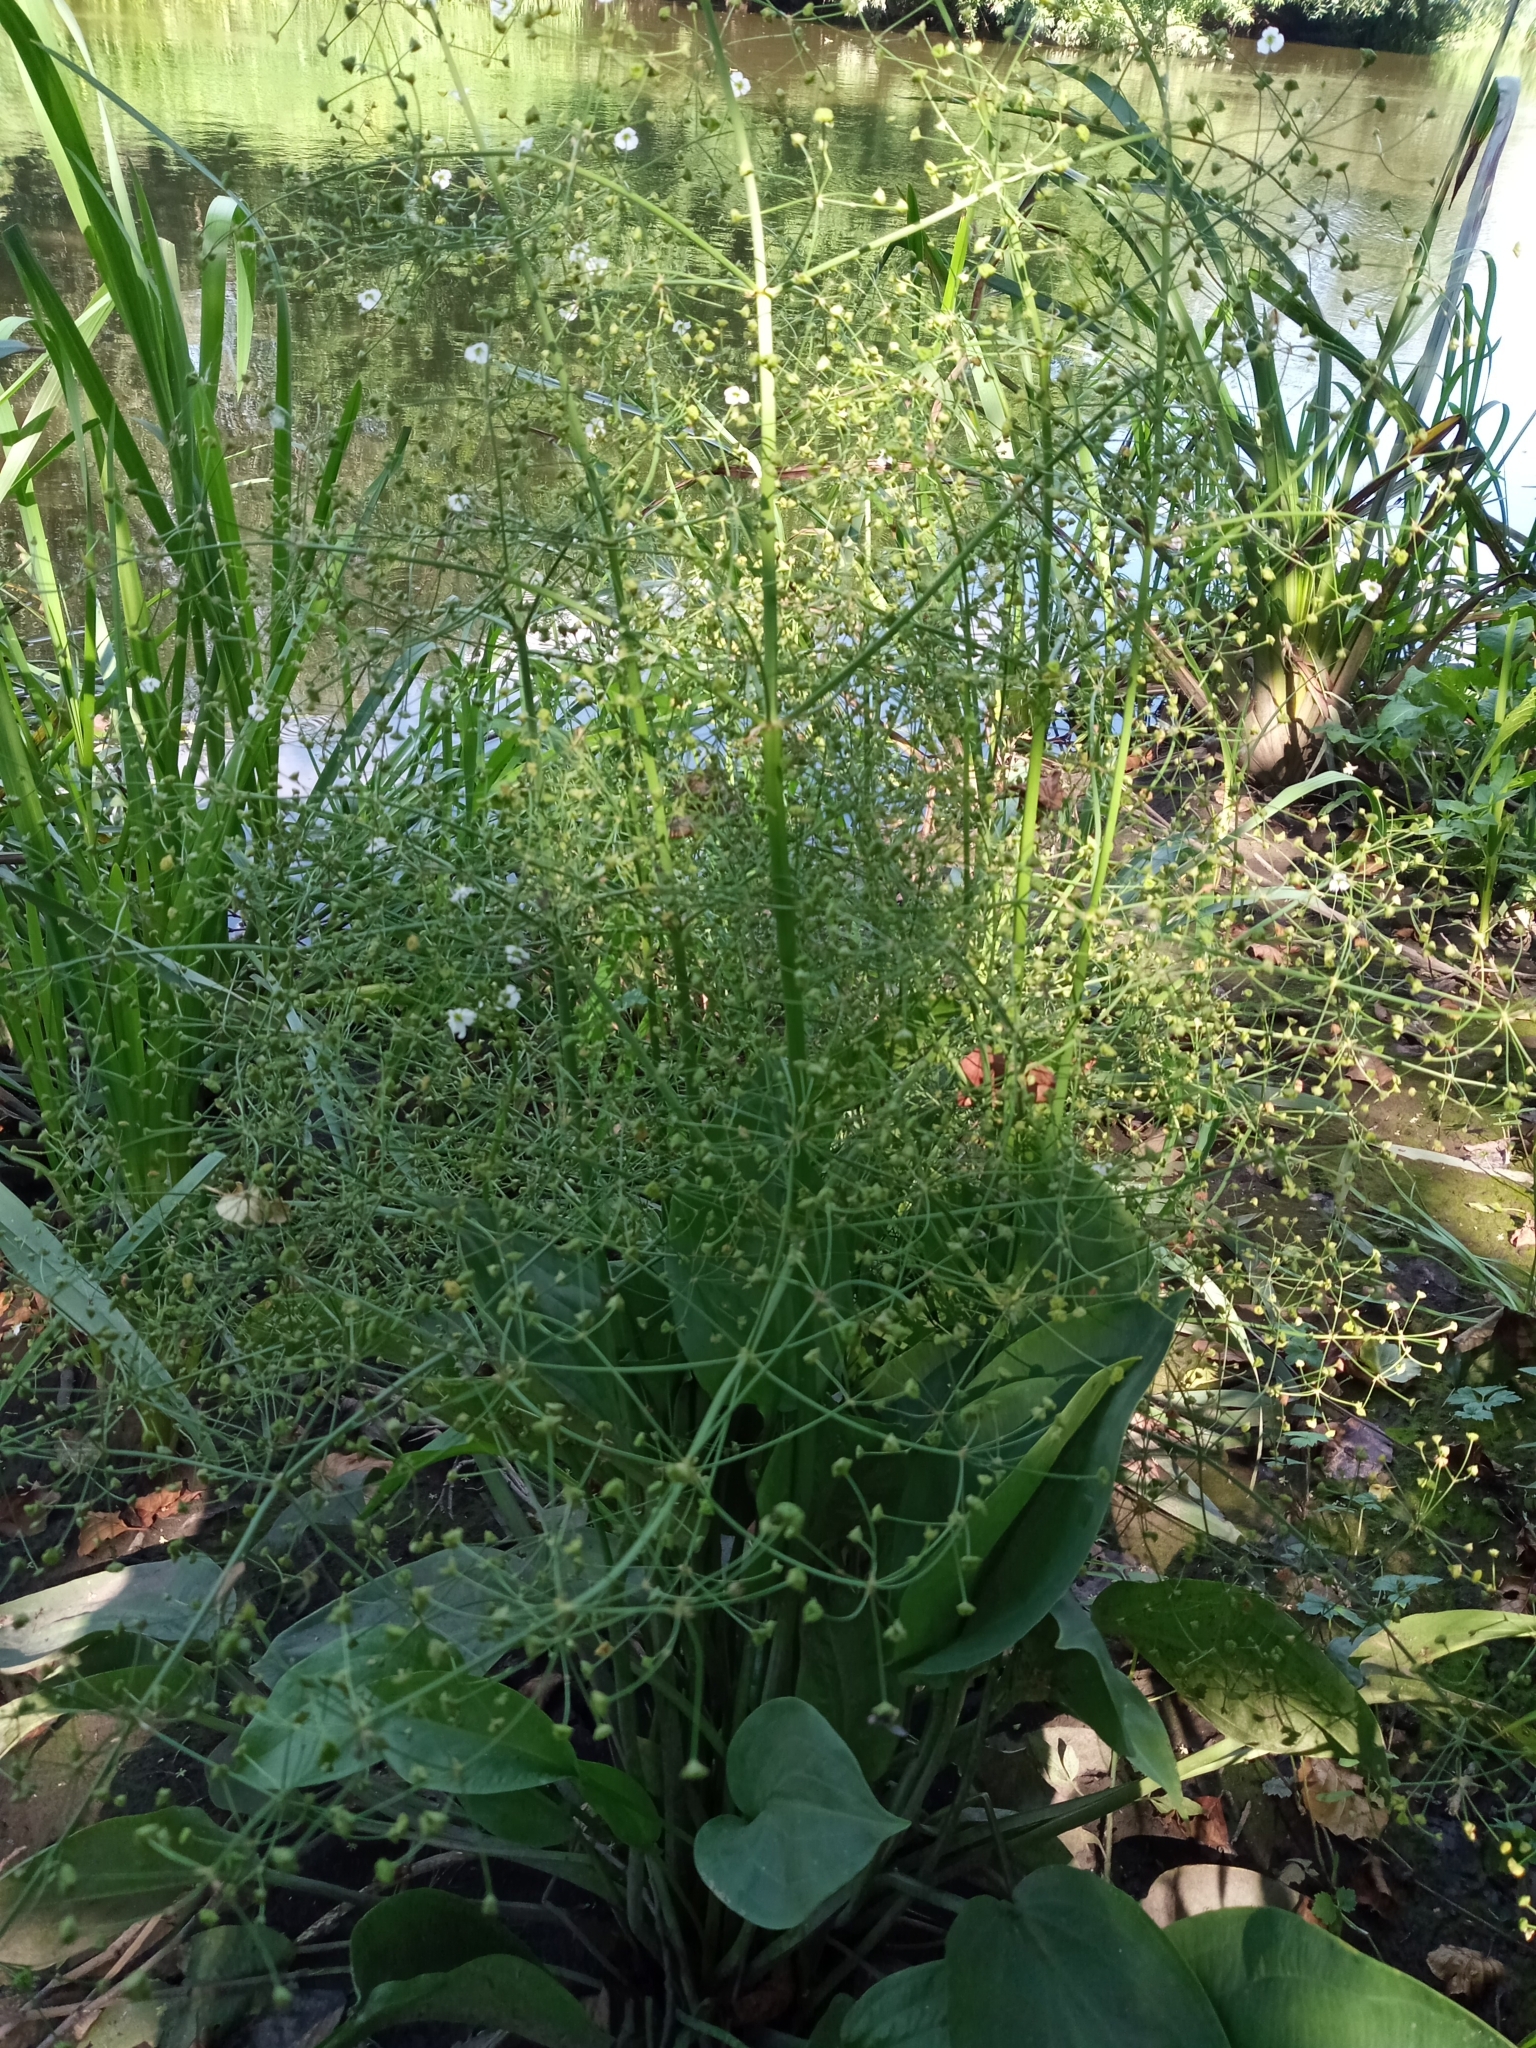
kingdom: Plantae
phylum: Tracheophyta
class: Liliopsida
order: Alismatales
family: Alismataceae
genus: Alisma
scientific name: Alisma plantago-aquatica
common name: Water-plantain
